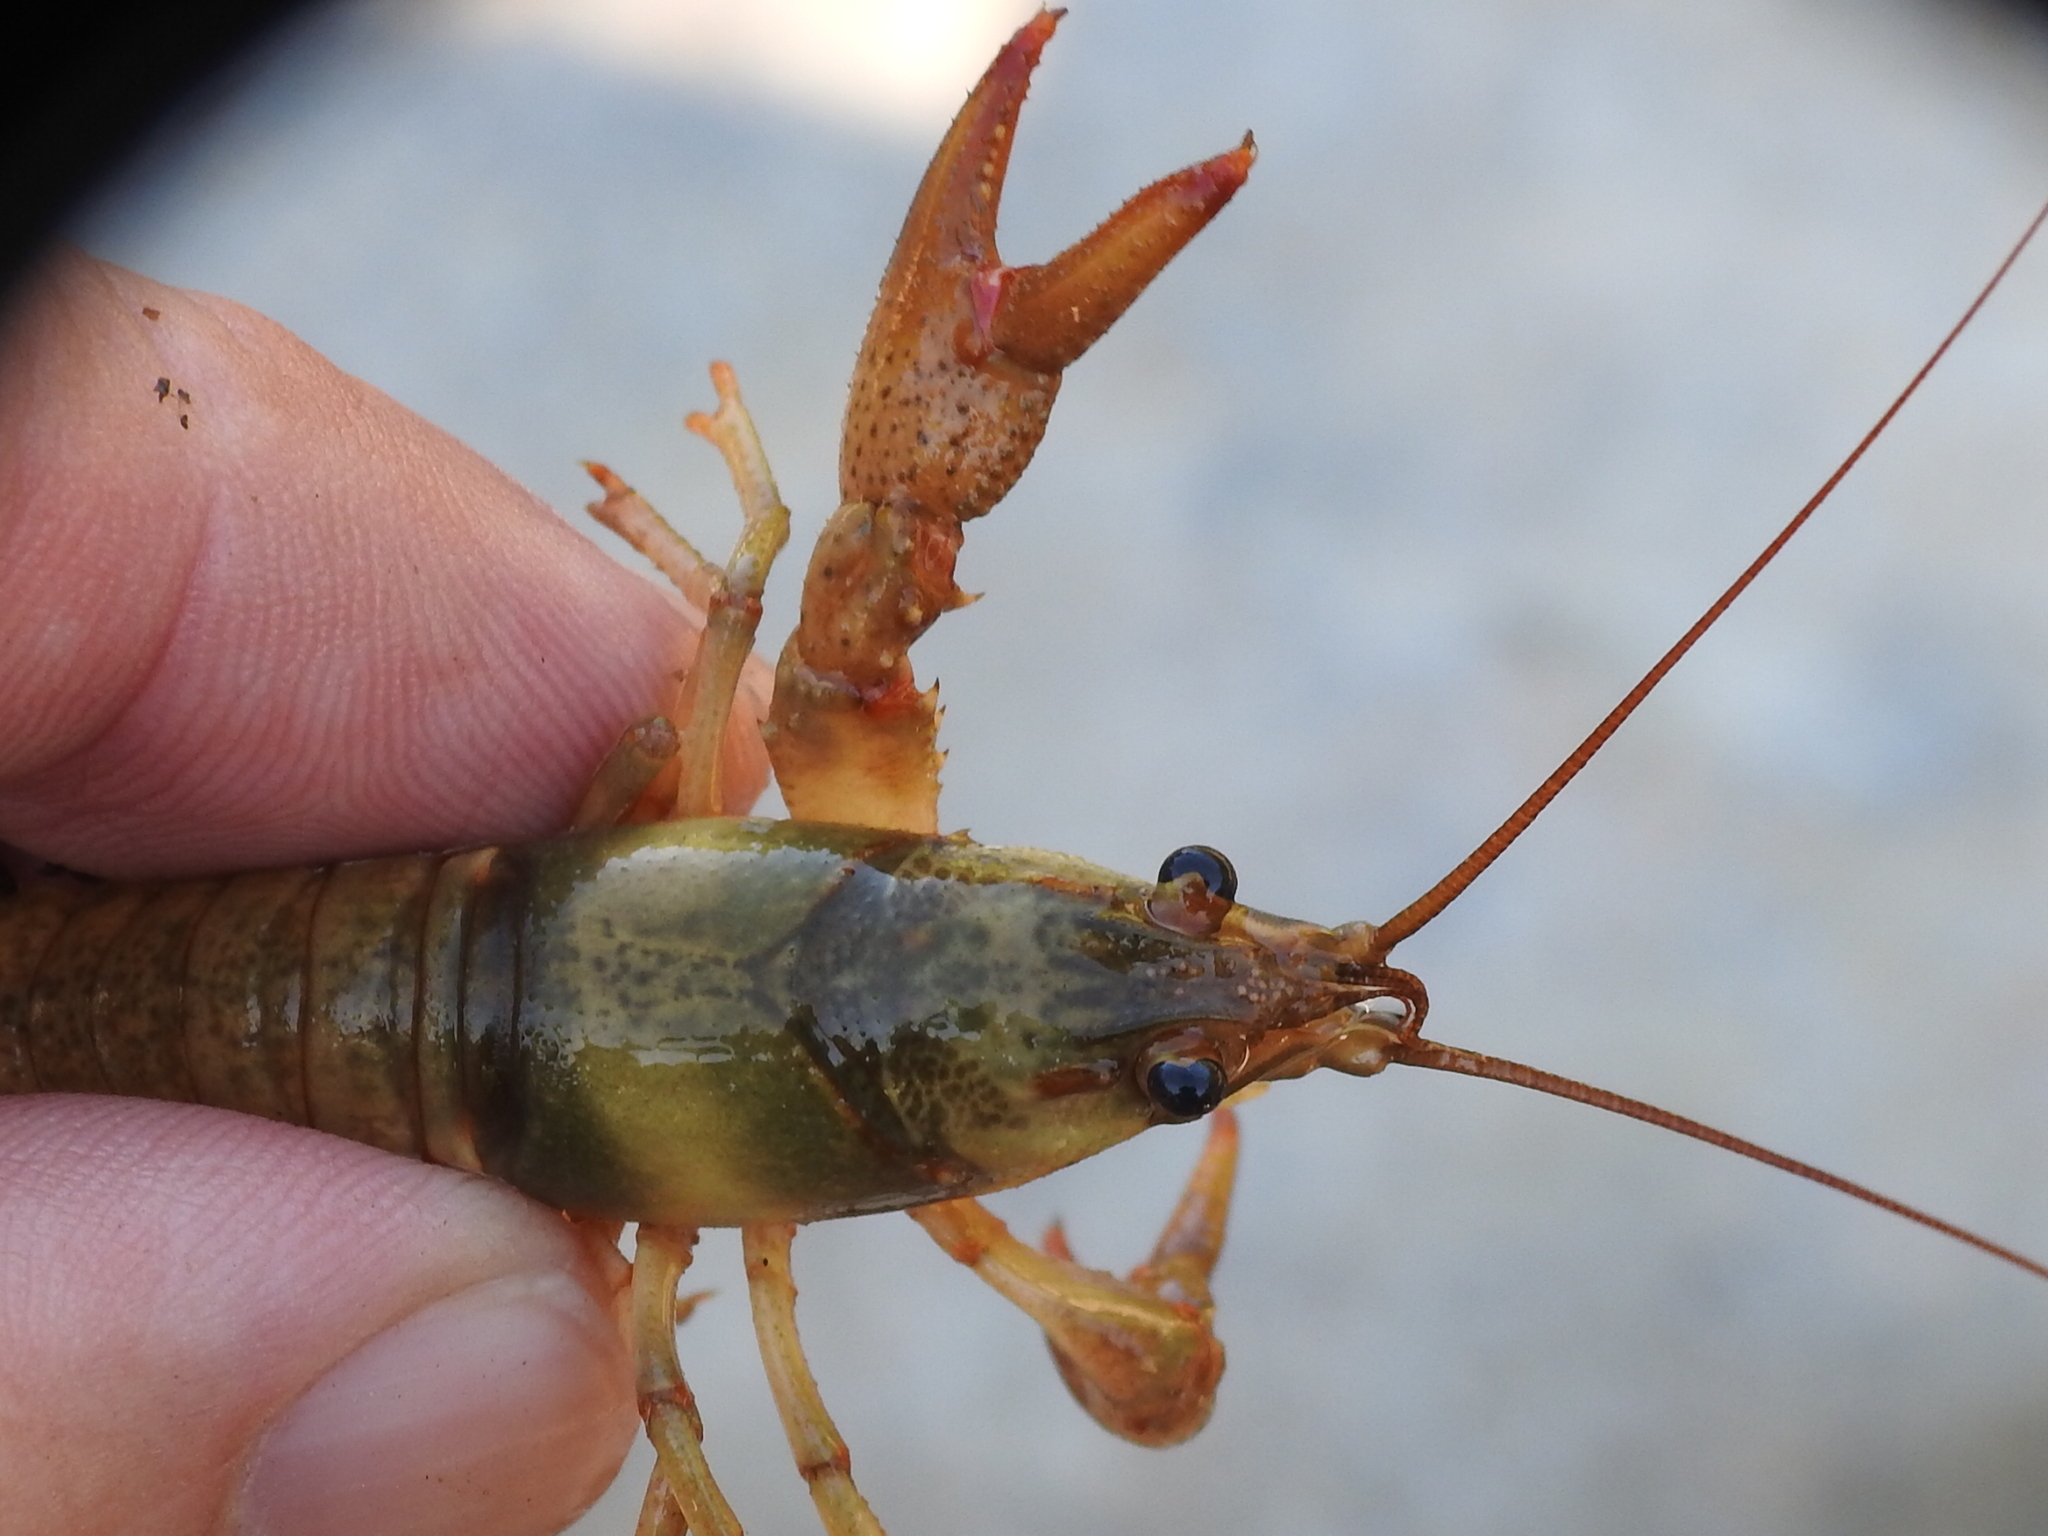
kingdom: Animalia
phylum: Arthropoda
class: Malacostraca
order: Decapoda
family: Cambaridae
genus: Faxonius
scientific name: Faxonius ozarkae
